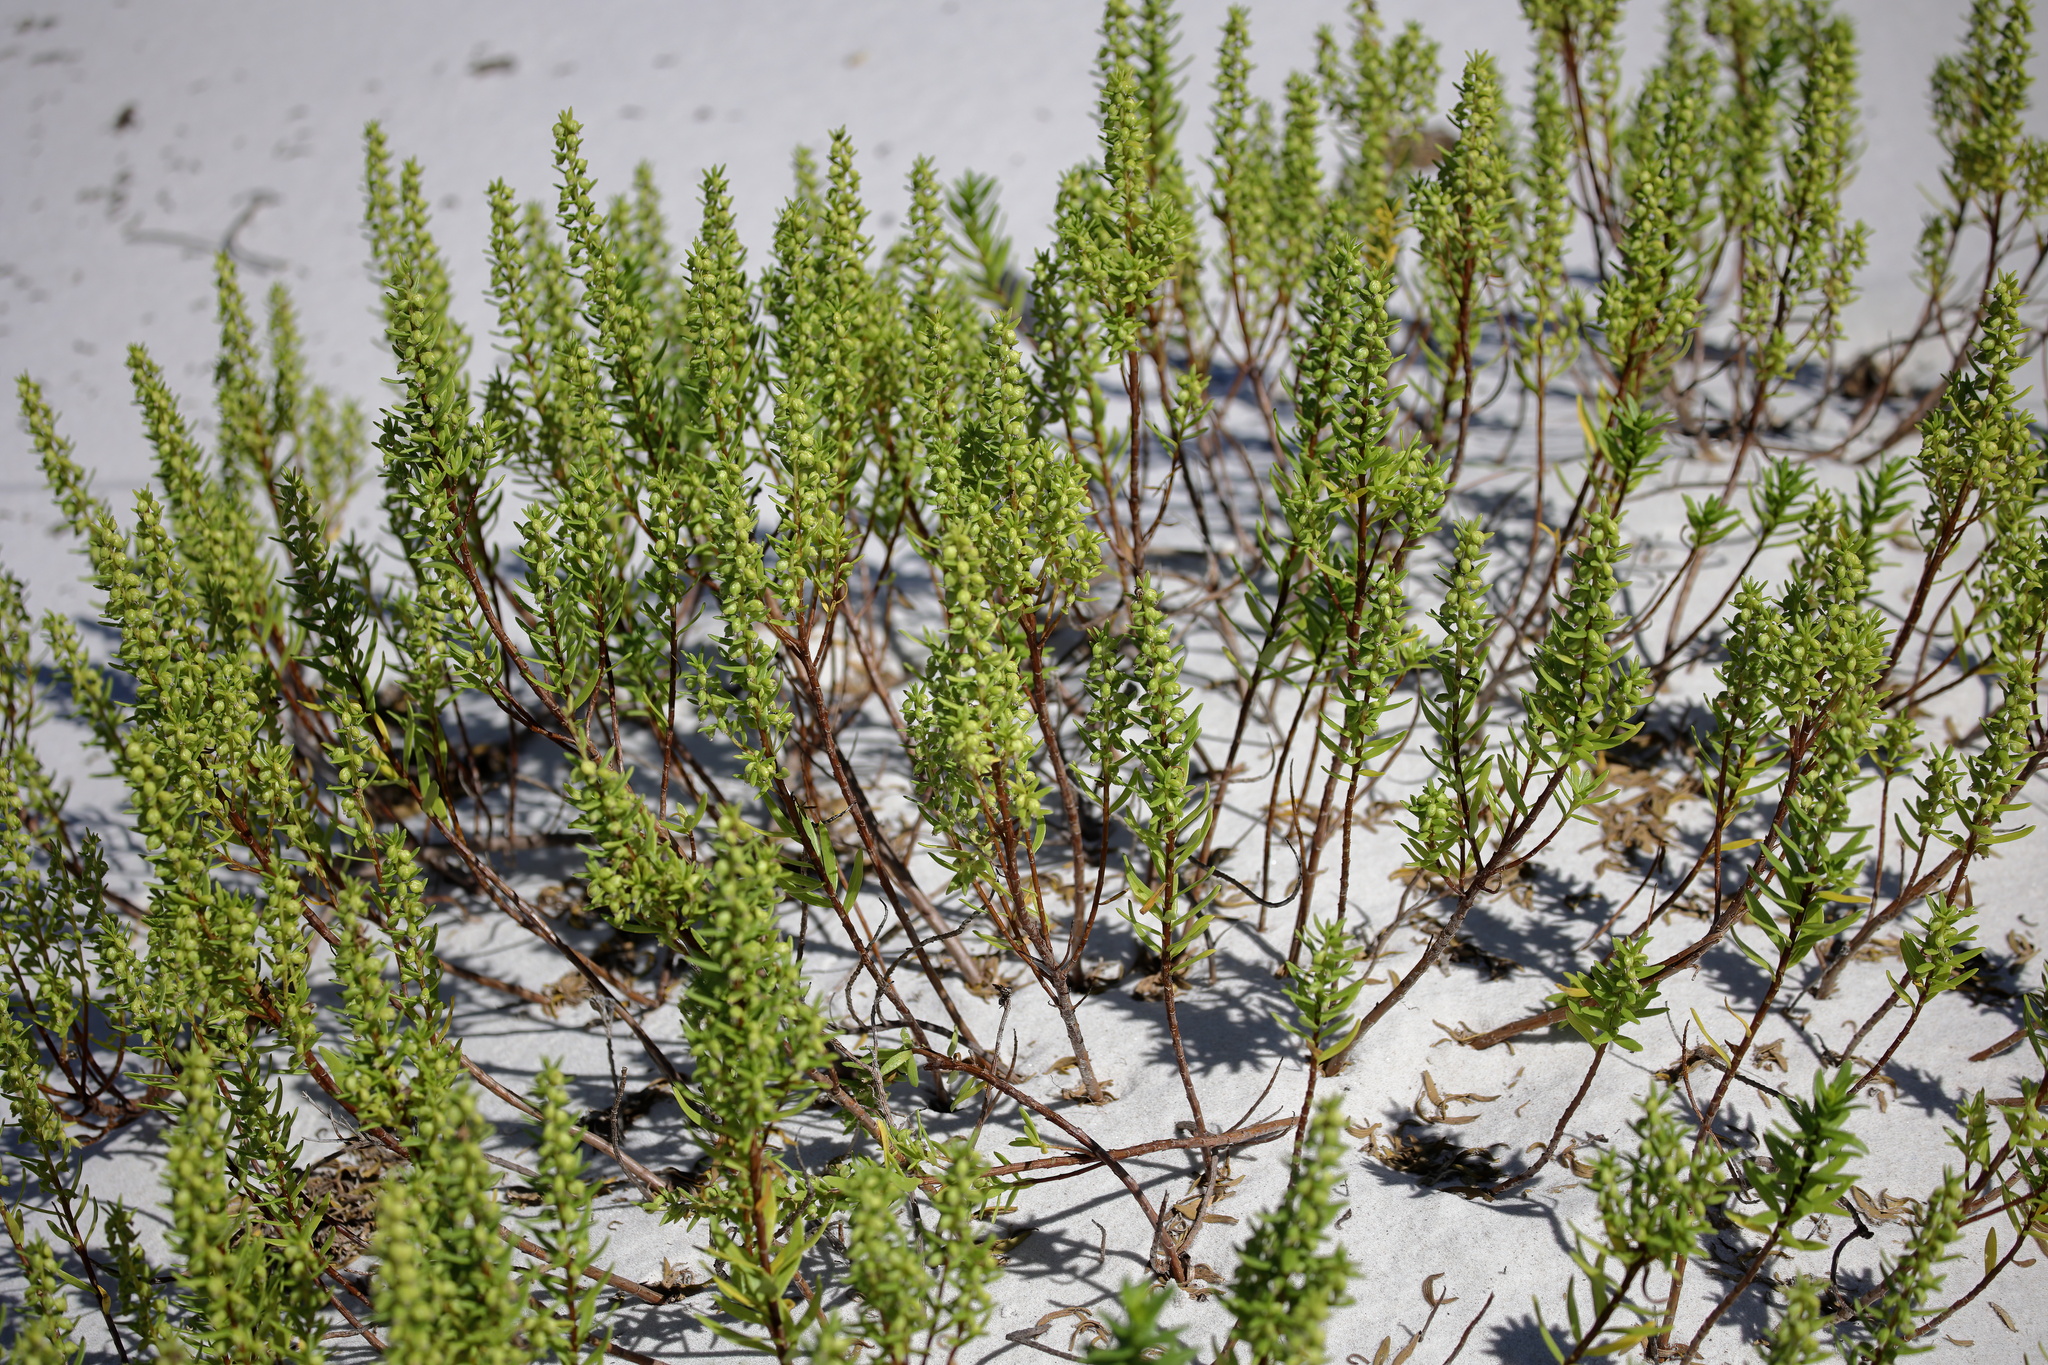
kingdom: Plantae
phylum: Tracheophyta
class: Magnoliopsida
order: Asterales
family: Asteraceae
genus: Iva
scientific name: Iva imbricata
